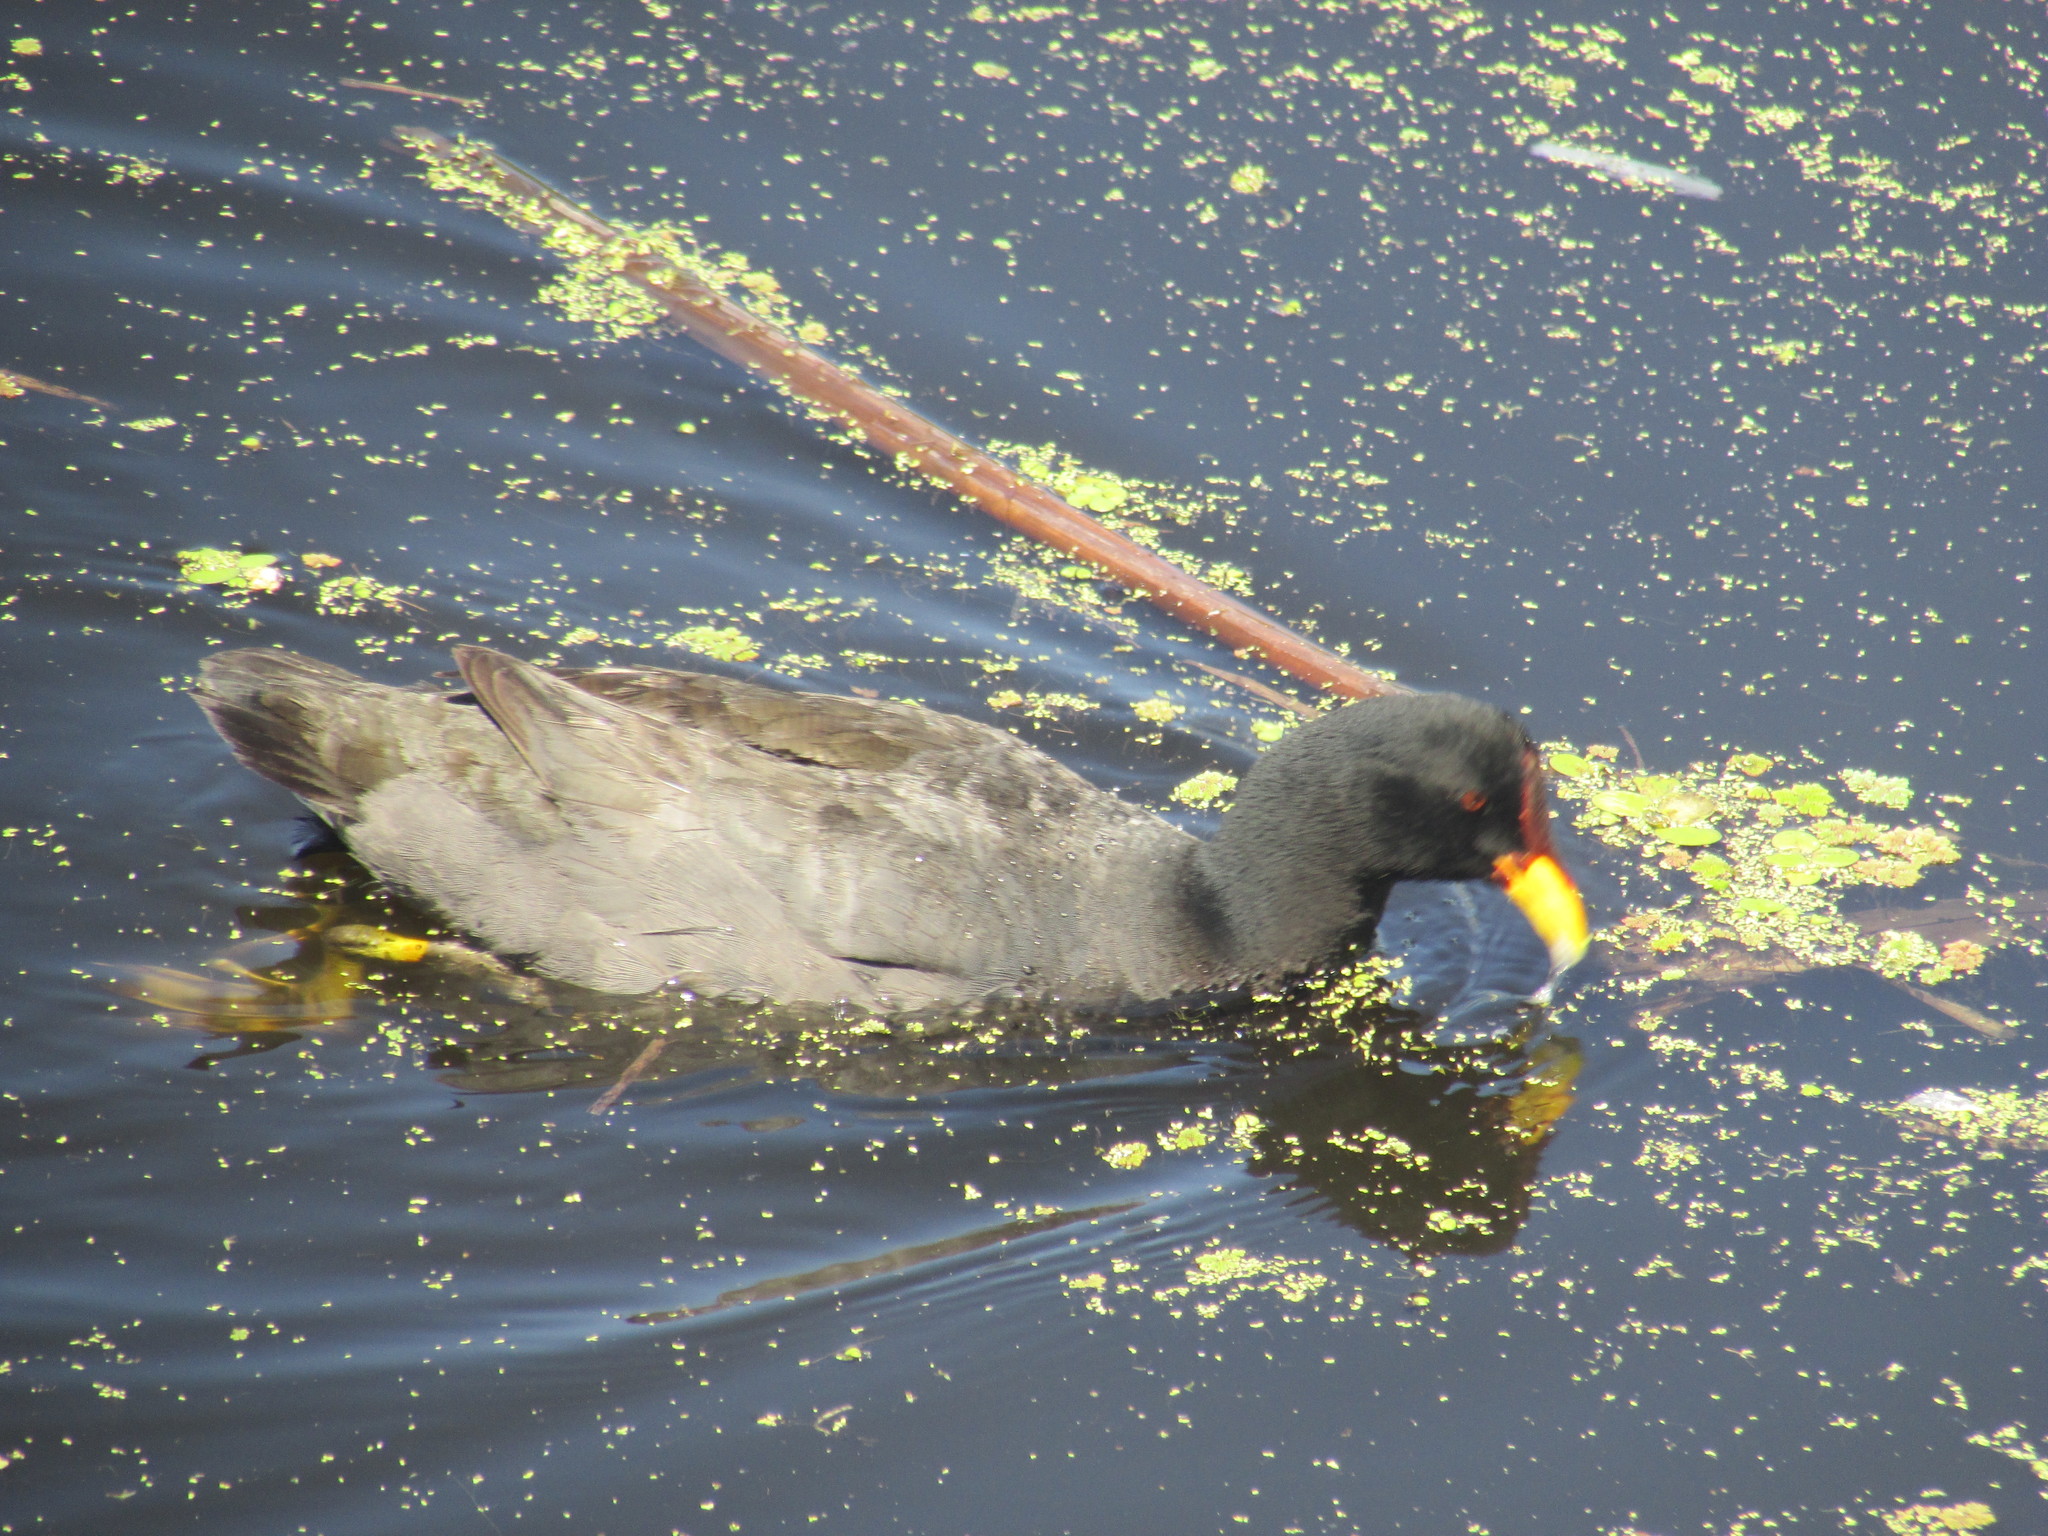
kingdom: Animalia
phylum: Chordata
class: Aves
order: Gruiformes
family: Rallidae
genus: Fulica
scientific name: Fulica rufifrons
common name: Red-fronted coot
